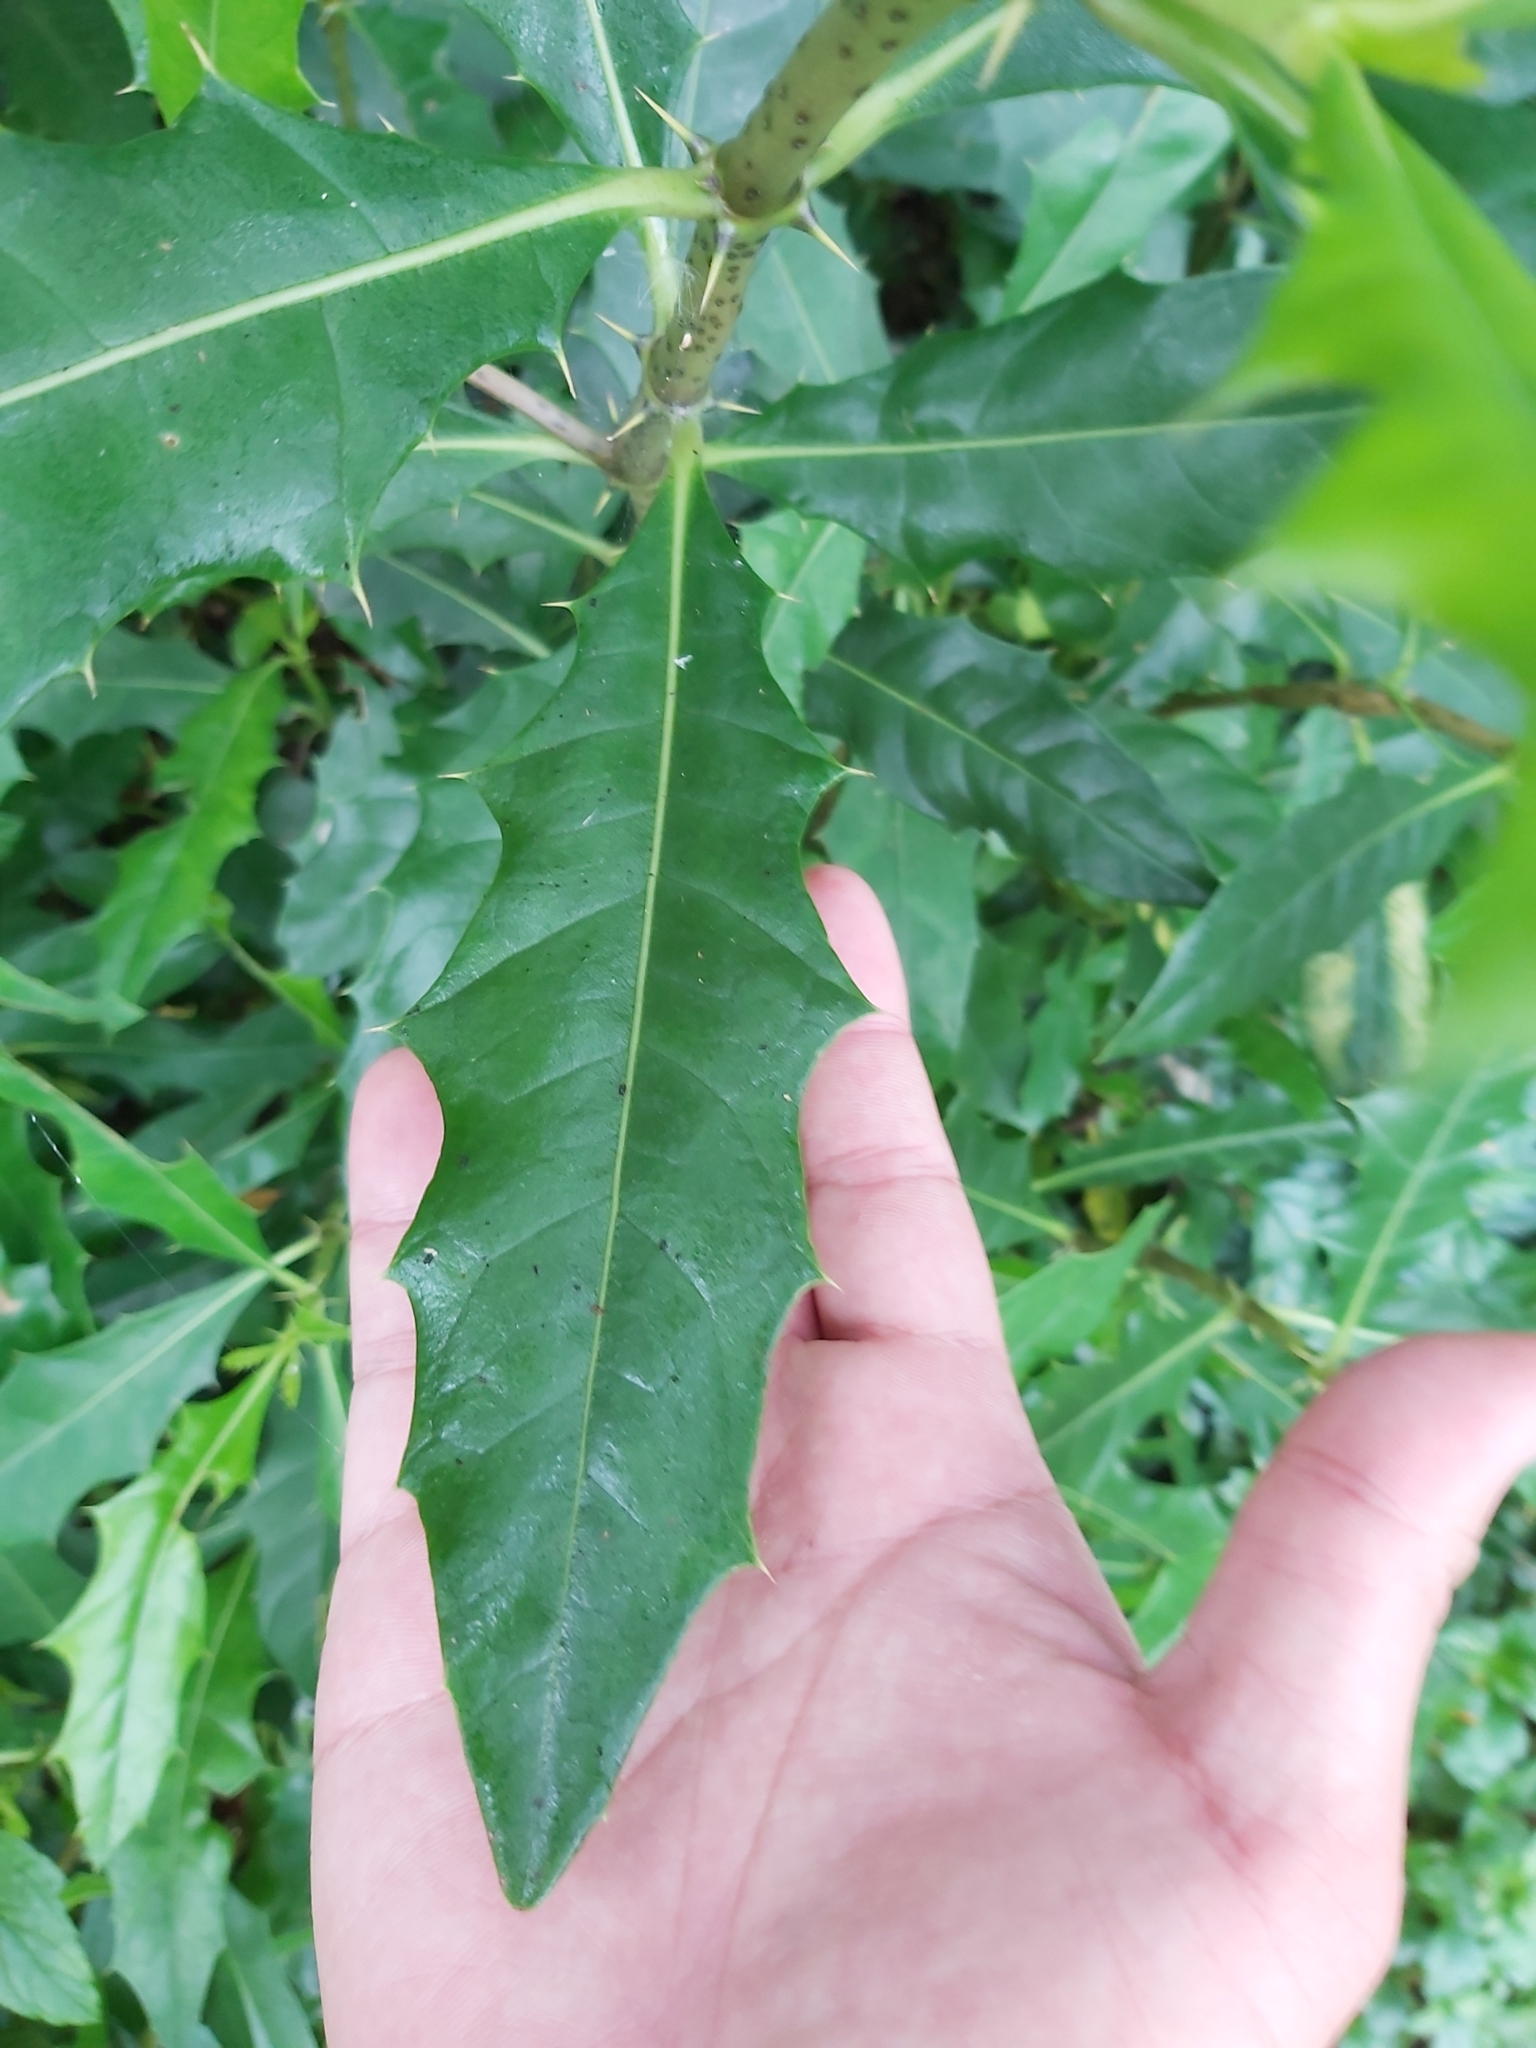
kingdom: Plantae
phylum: Tracheophyta
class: Magnoliopsida
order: Lamiales
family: Acanthaceae
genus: Acanthus
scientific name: Acanthus ilicifolius
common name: Holy mangrove
